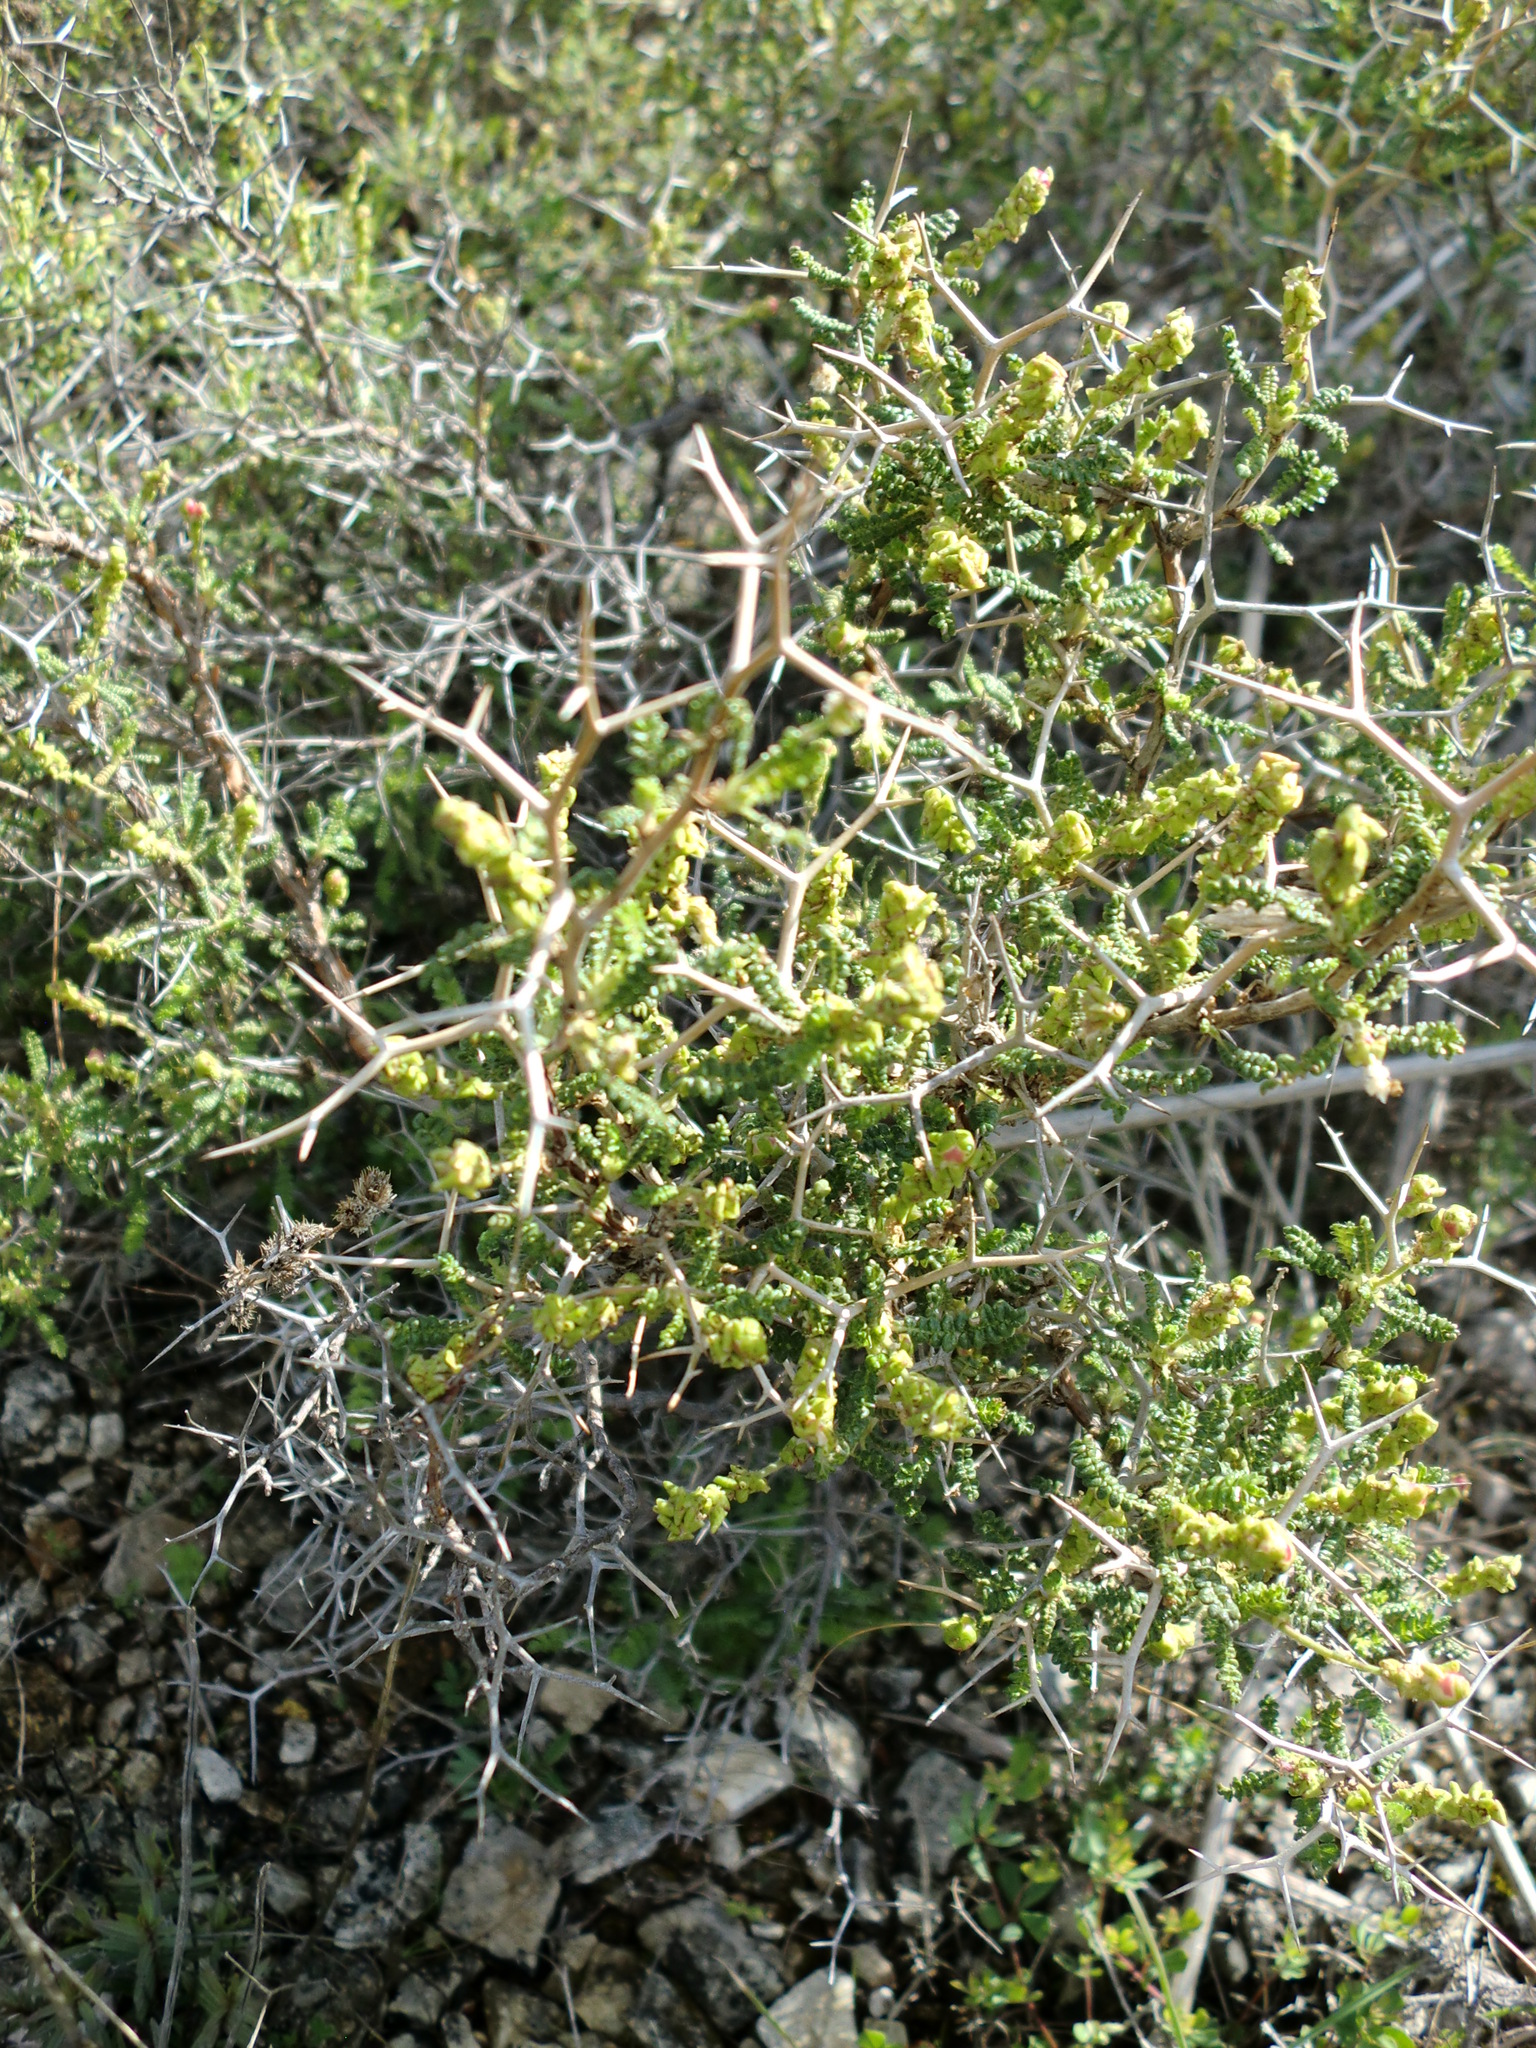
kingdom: Plantae
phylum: Tracheophyta
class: Magnoliopsida
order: Rosales
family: Rosaceae
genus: Sarcopoterium
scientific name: Sarcopoterium spinosum
